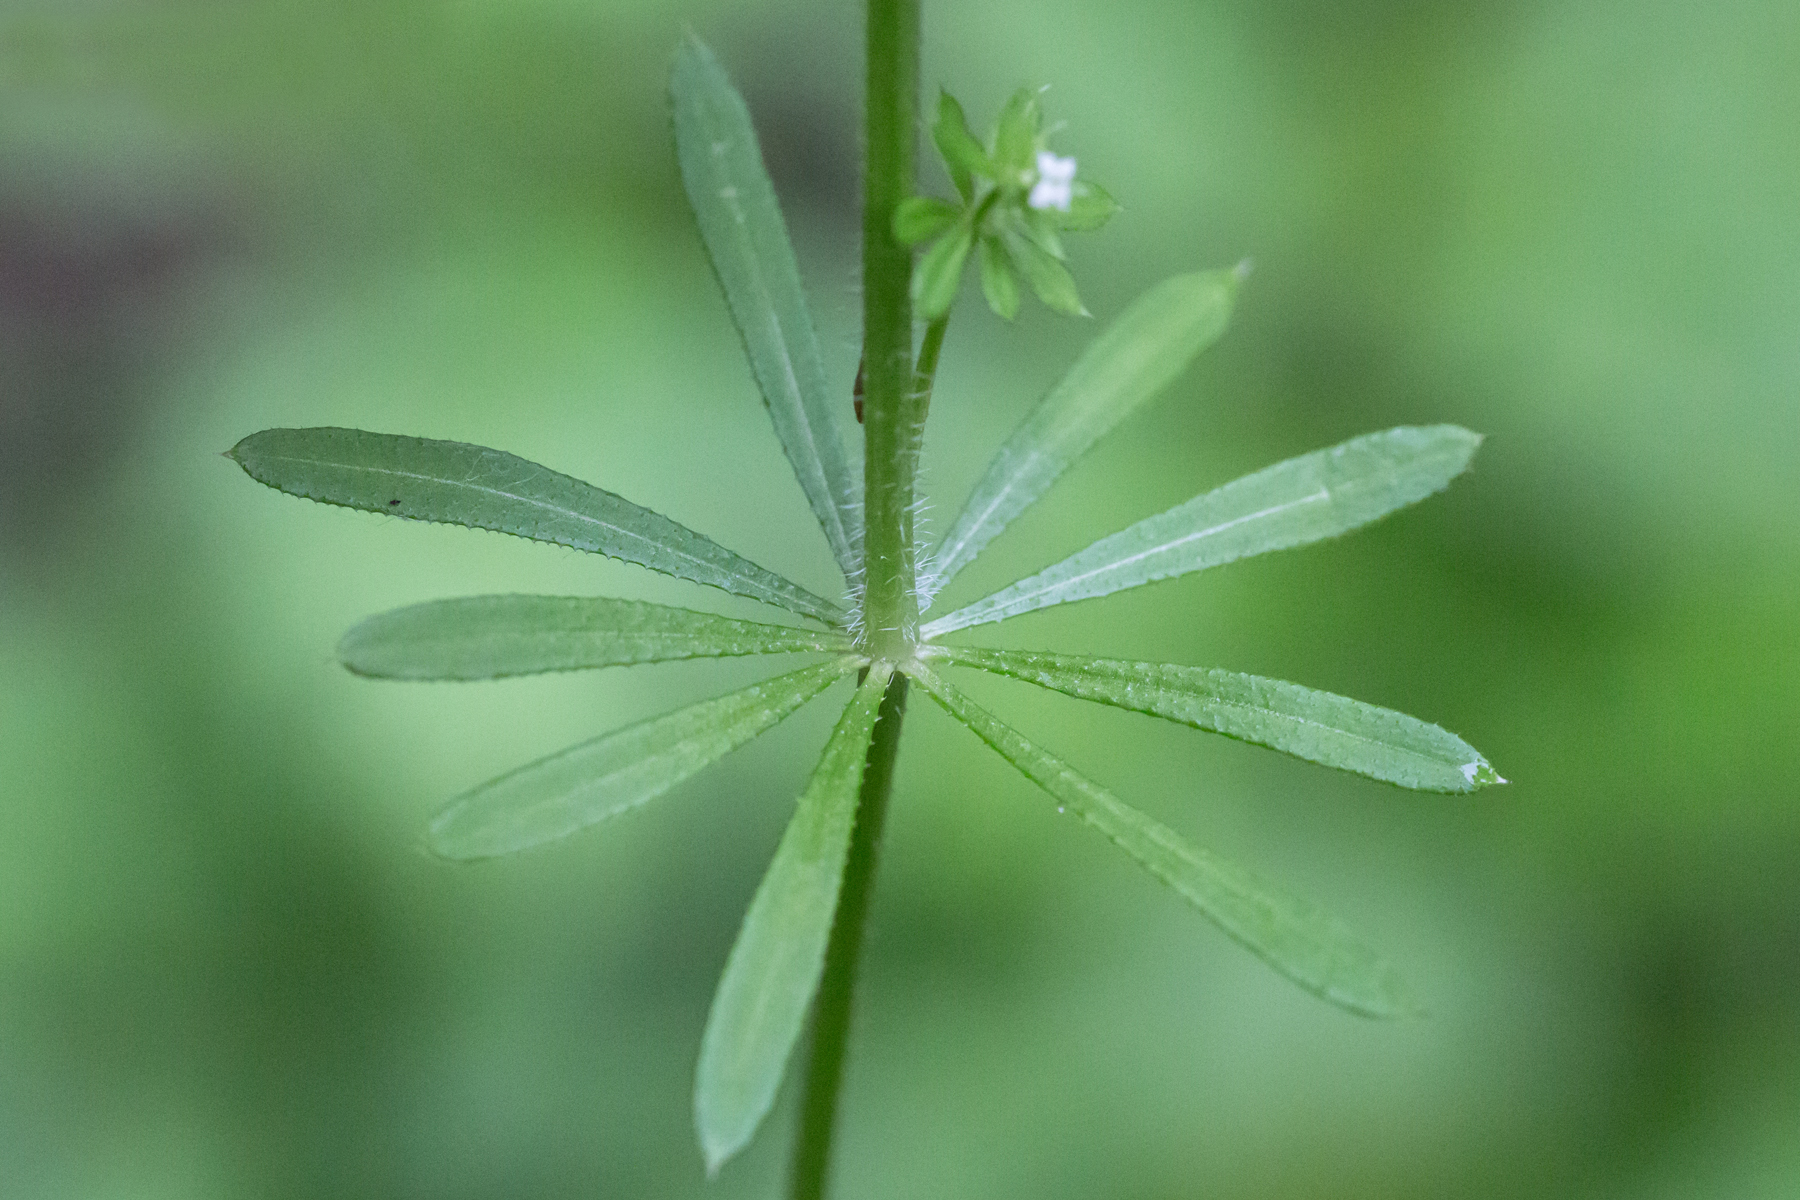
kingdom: Plantae
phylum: Tracheophyta
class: Magnoliopsida
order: Gentianales
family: Rubiaceae
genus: Galium
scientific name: Galium aparine
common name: Cleavers
